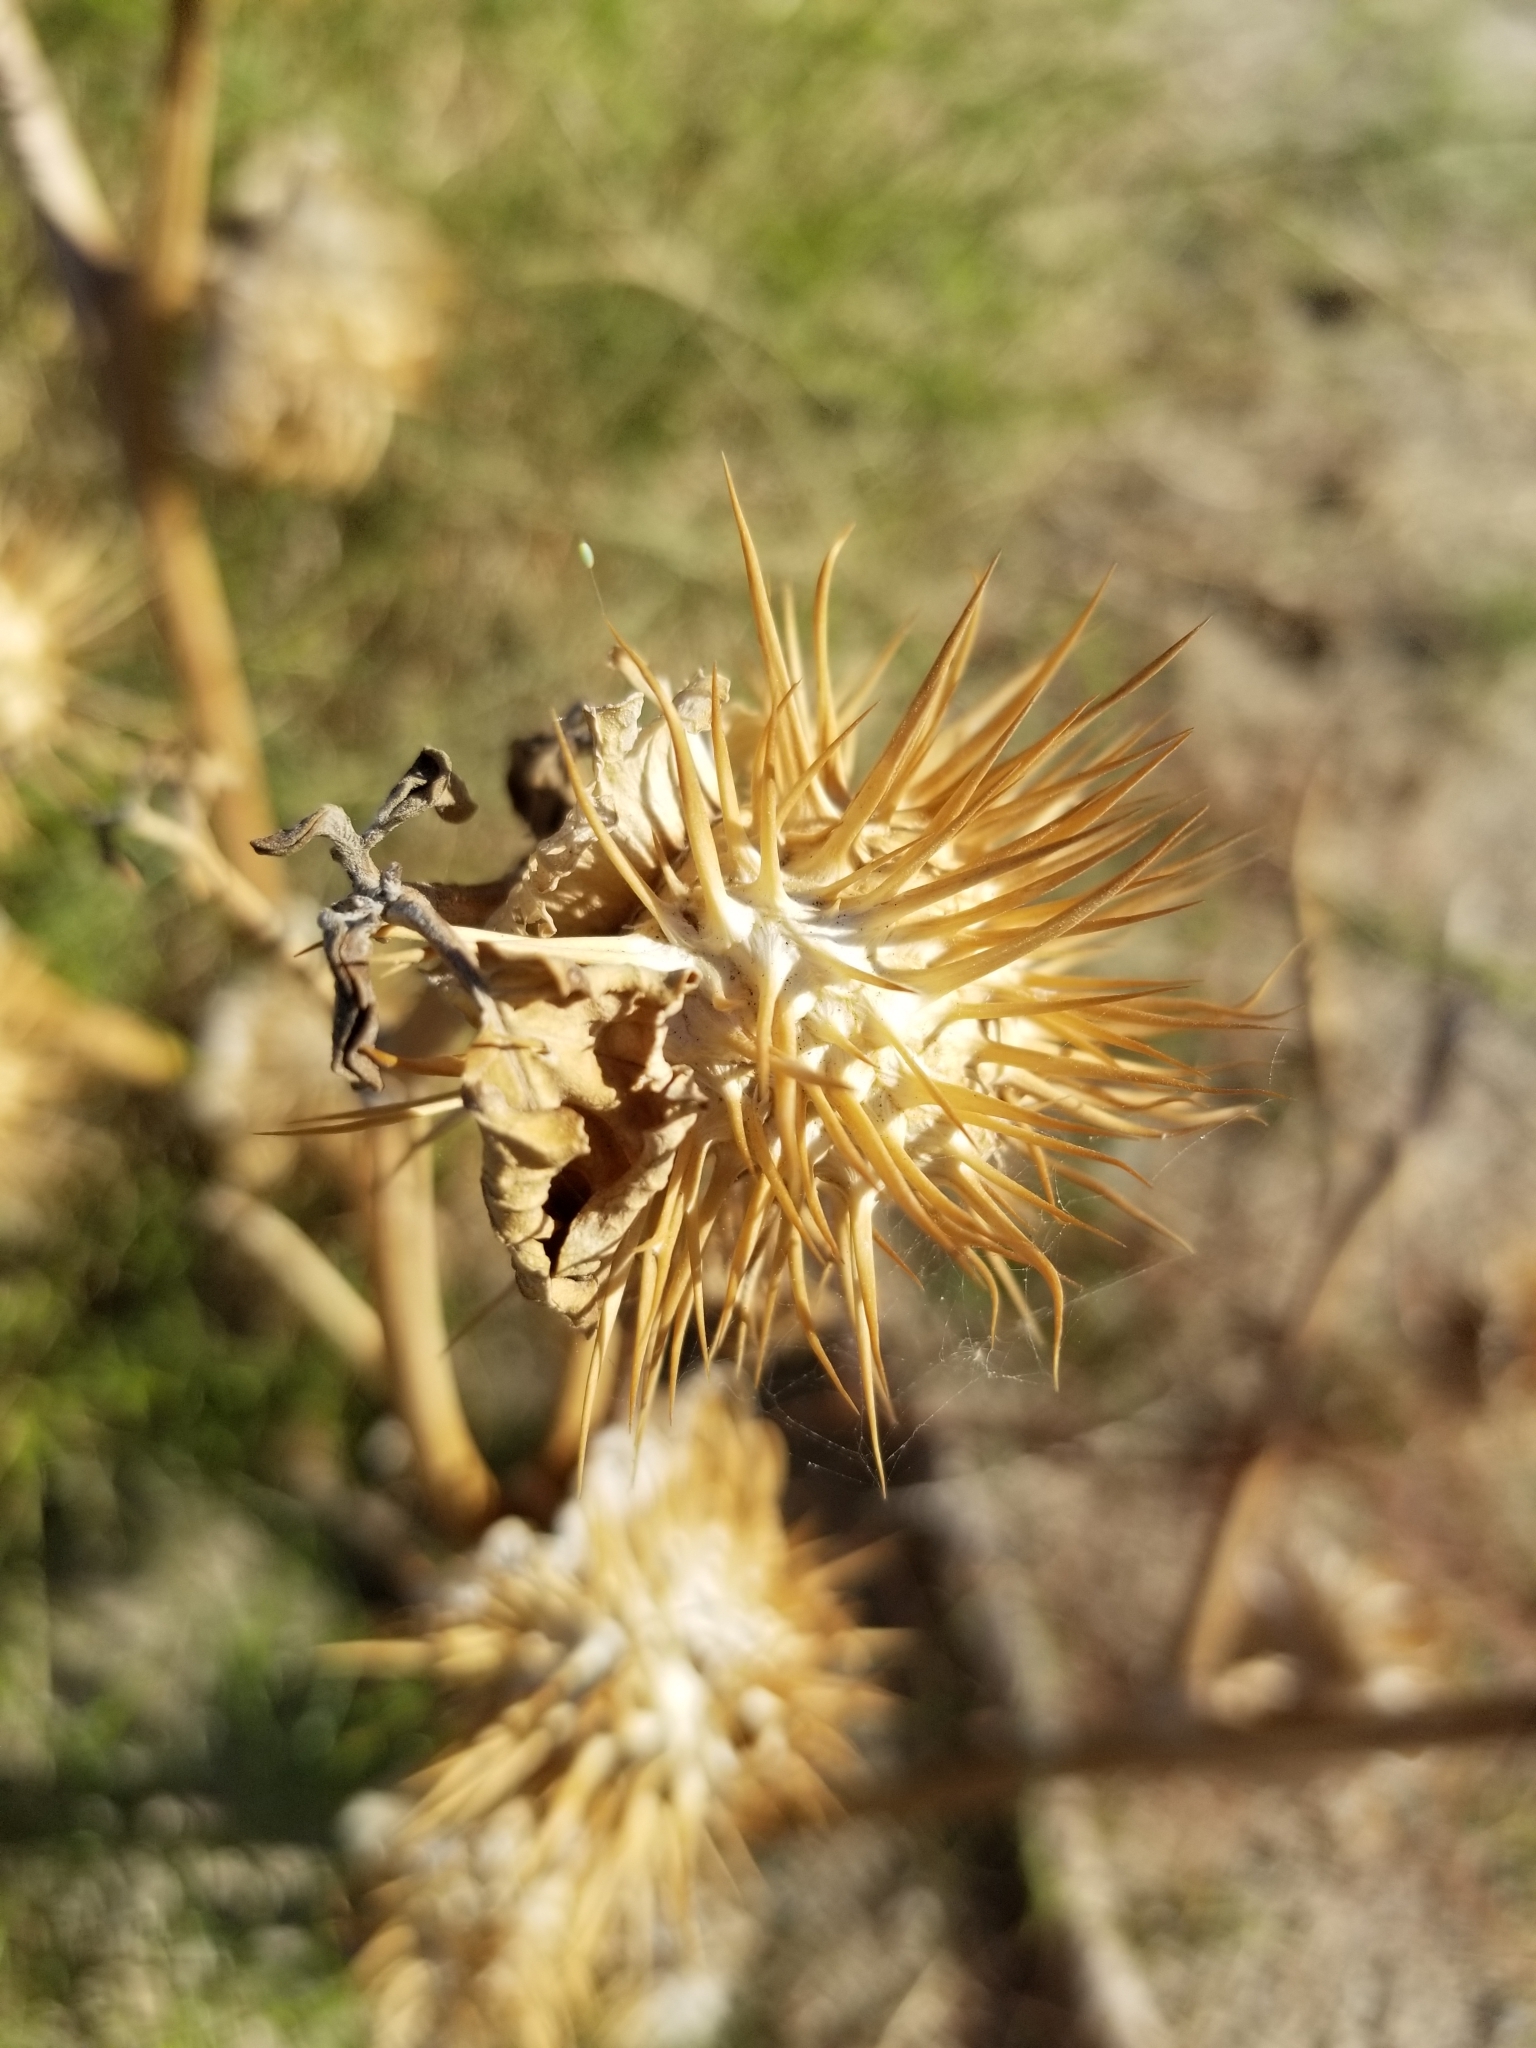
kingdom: Plantae
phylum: Tracheophyta
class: Magnoliopsida
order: Solanales
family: Solanaceae
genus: Datura
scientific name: Datura discolor
